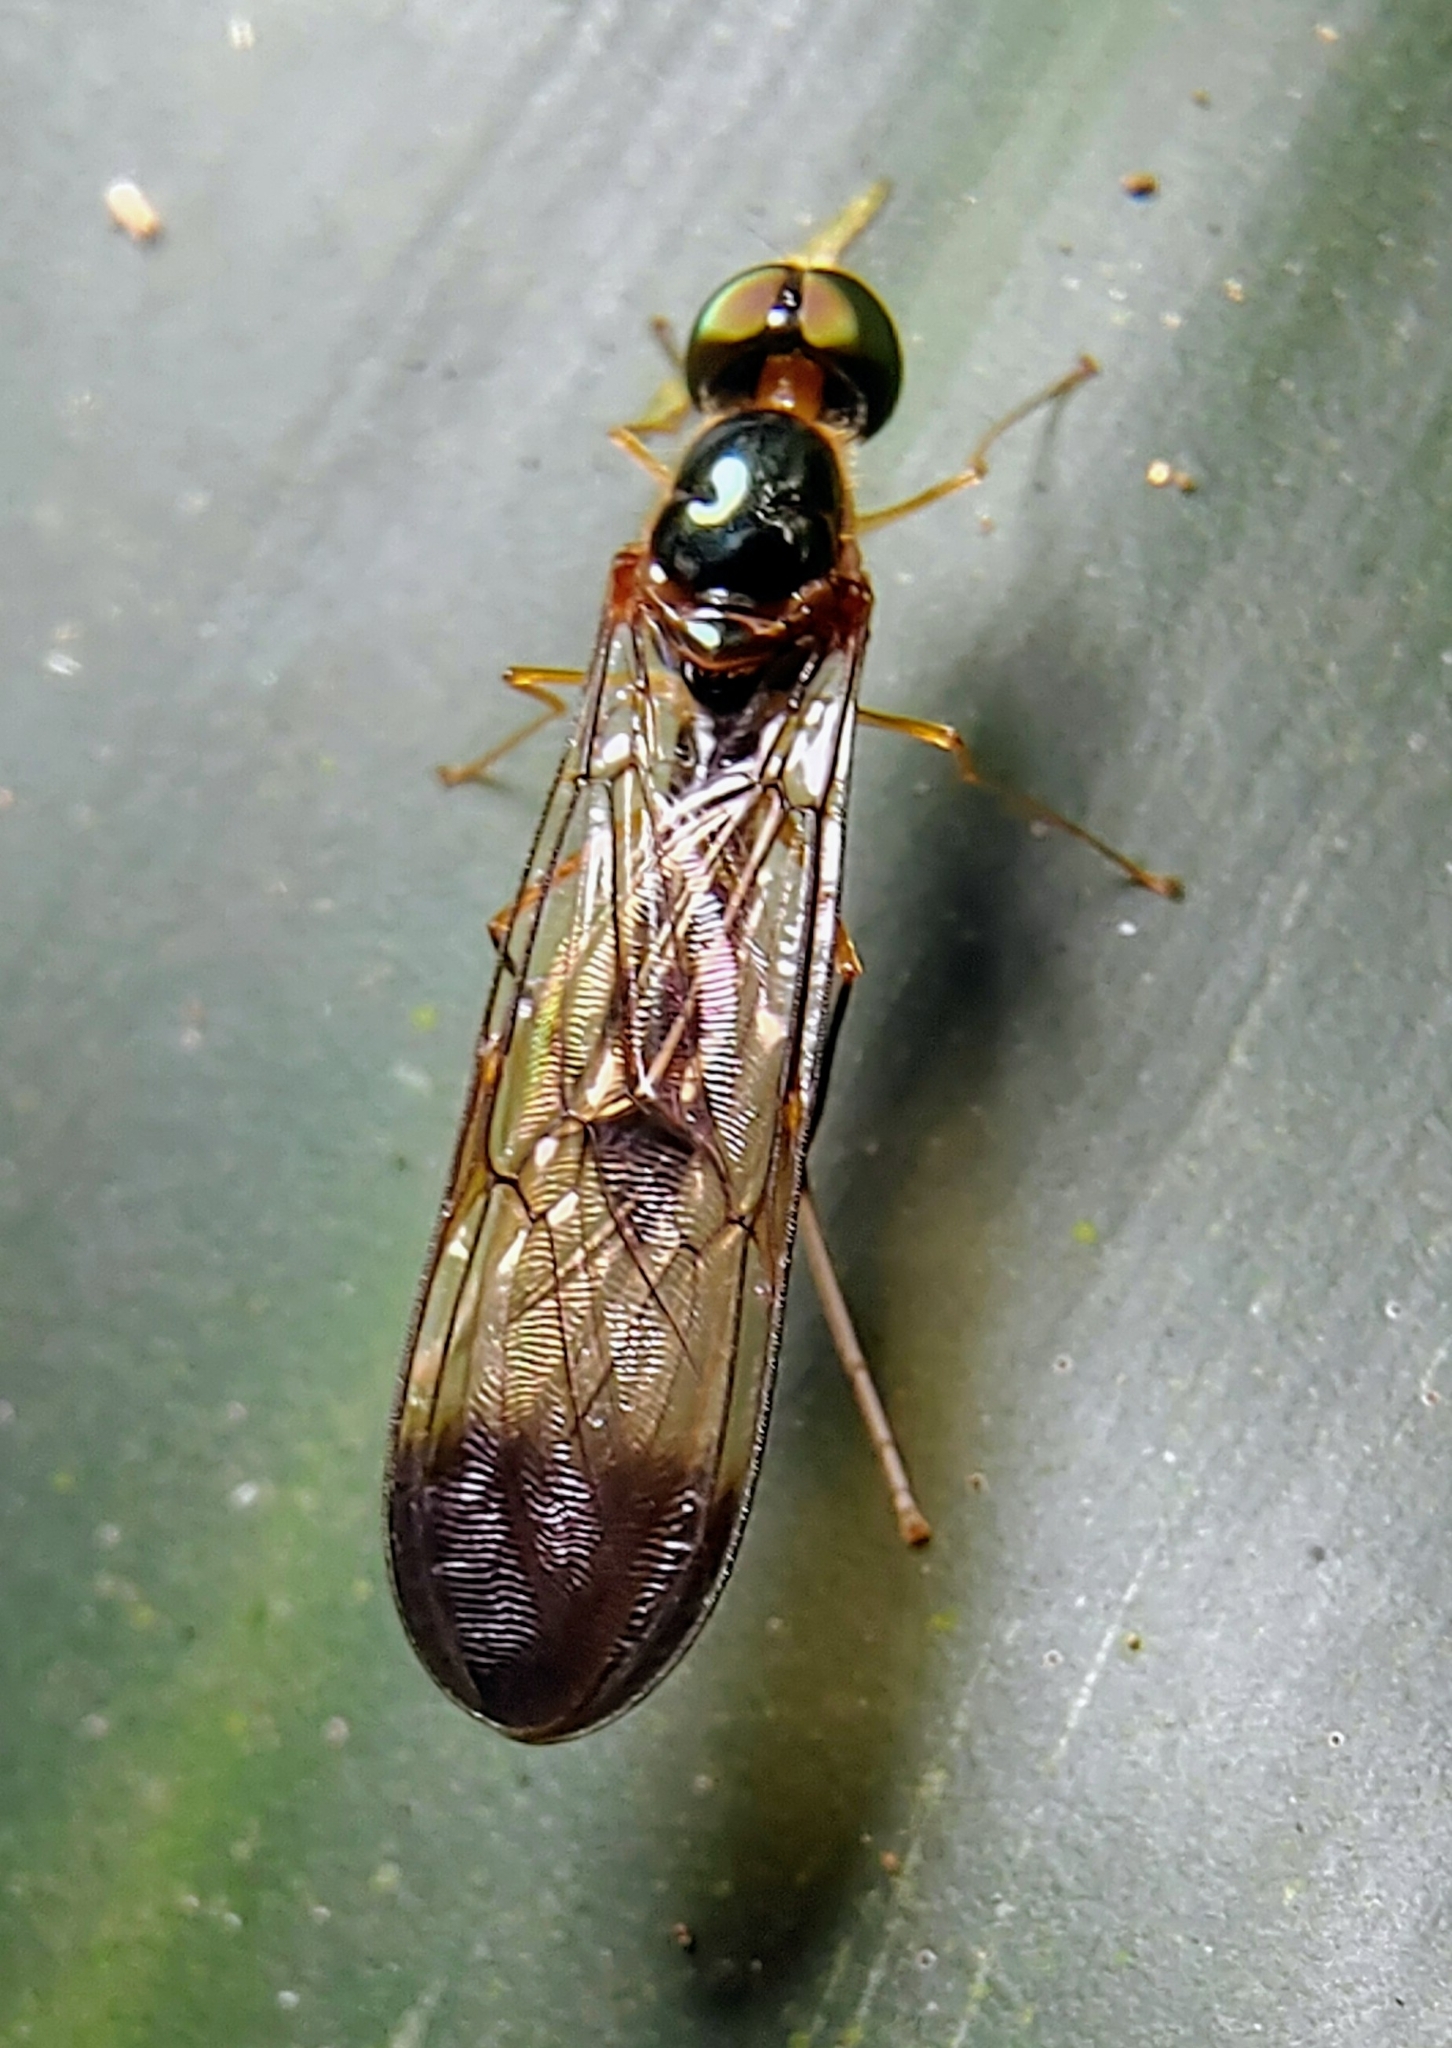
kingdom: Animalia
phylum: Arthropoda
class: Insecta
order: Diptera
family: Stratiomyidae
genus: Ptecticus
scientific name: Ptecticus longipennis
